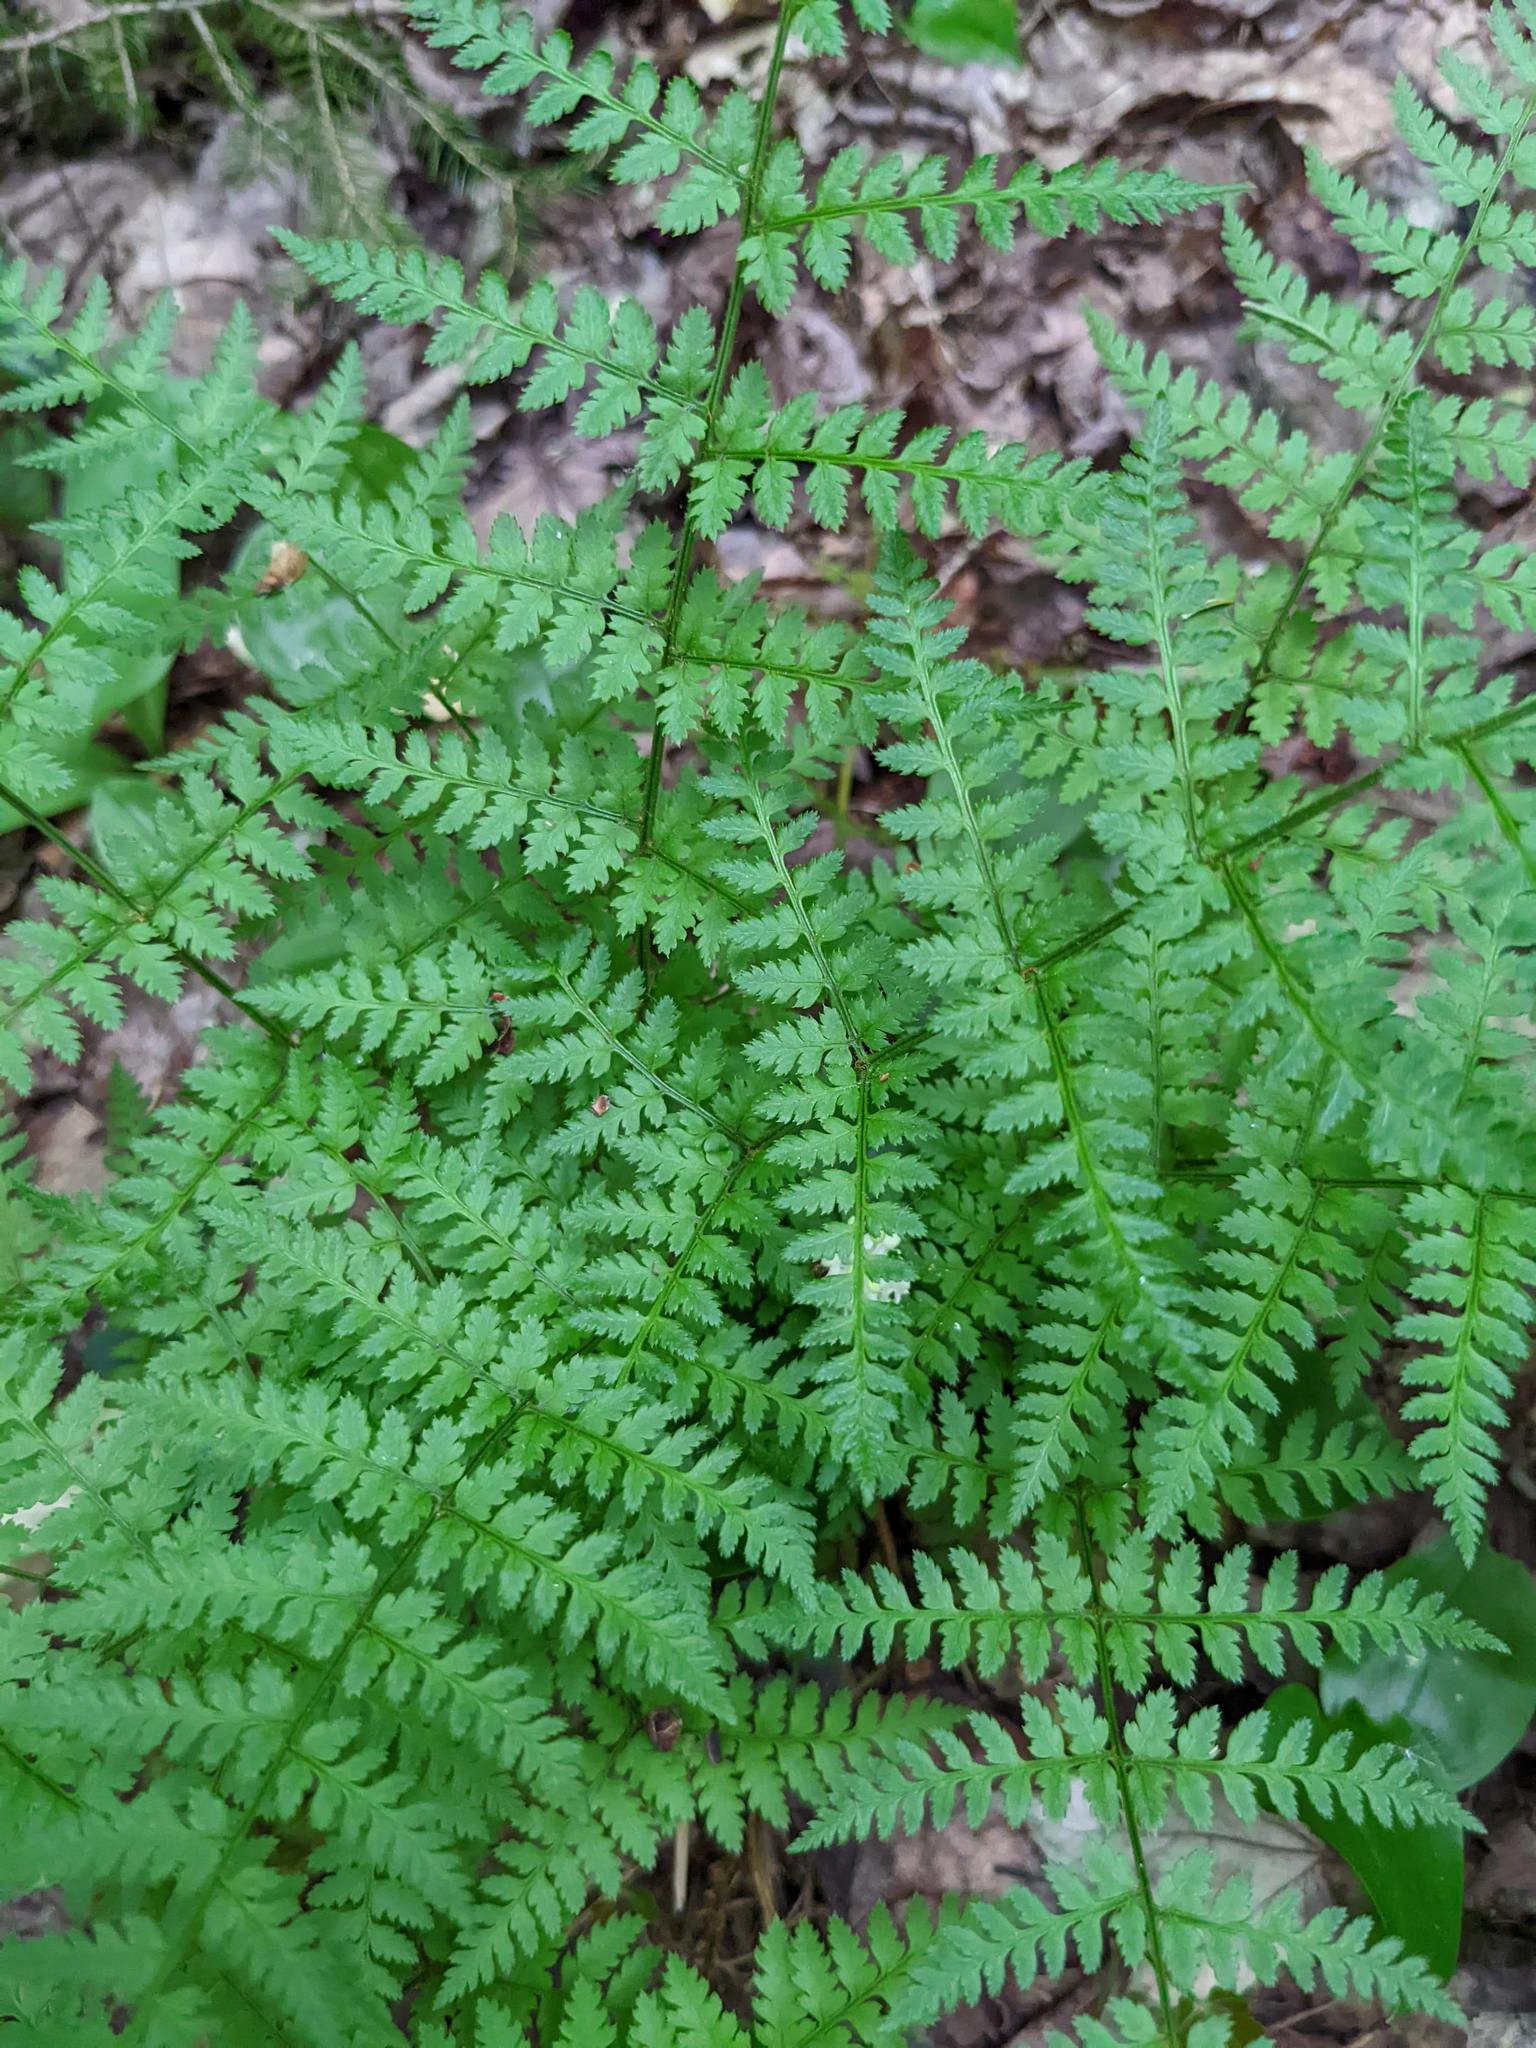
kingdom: Plantae
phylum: Tracheophyta
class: Polypodiopsida
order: Polypodiales
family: Athyriaceae
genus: Athyrium
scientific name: Athyrium angustum
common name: Northern lady fern
